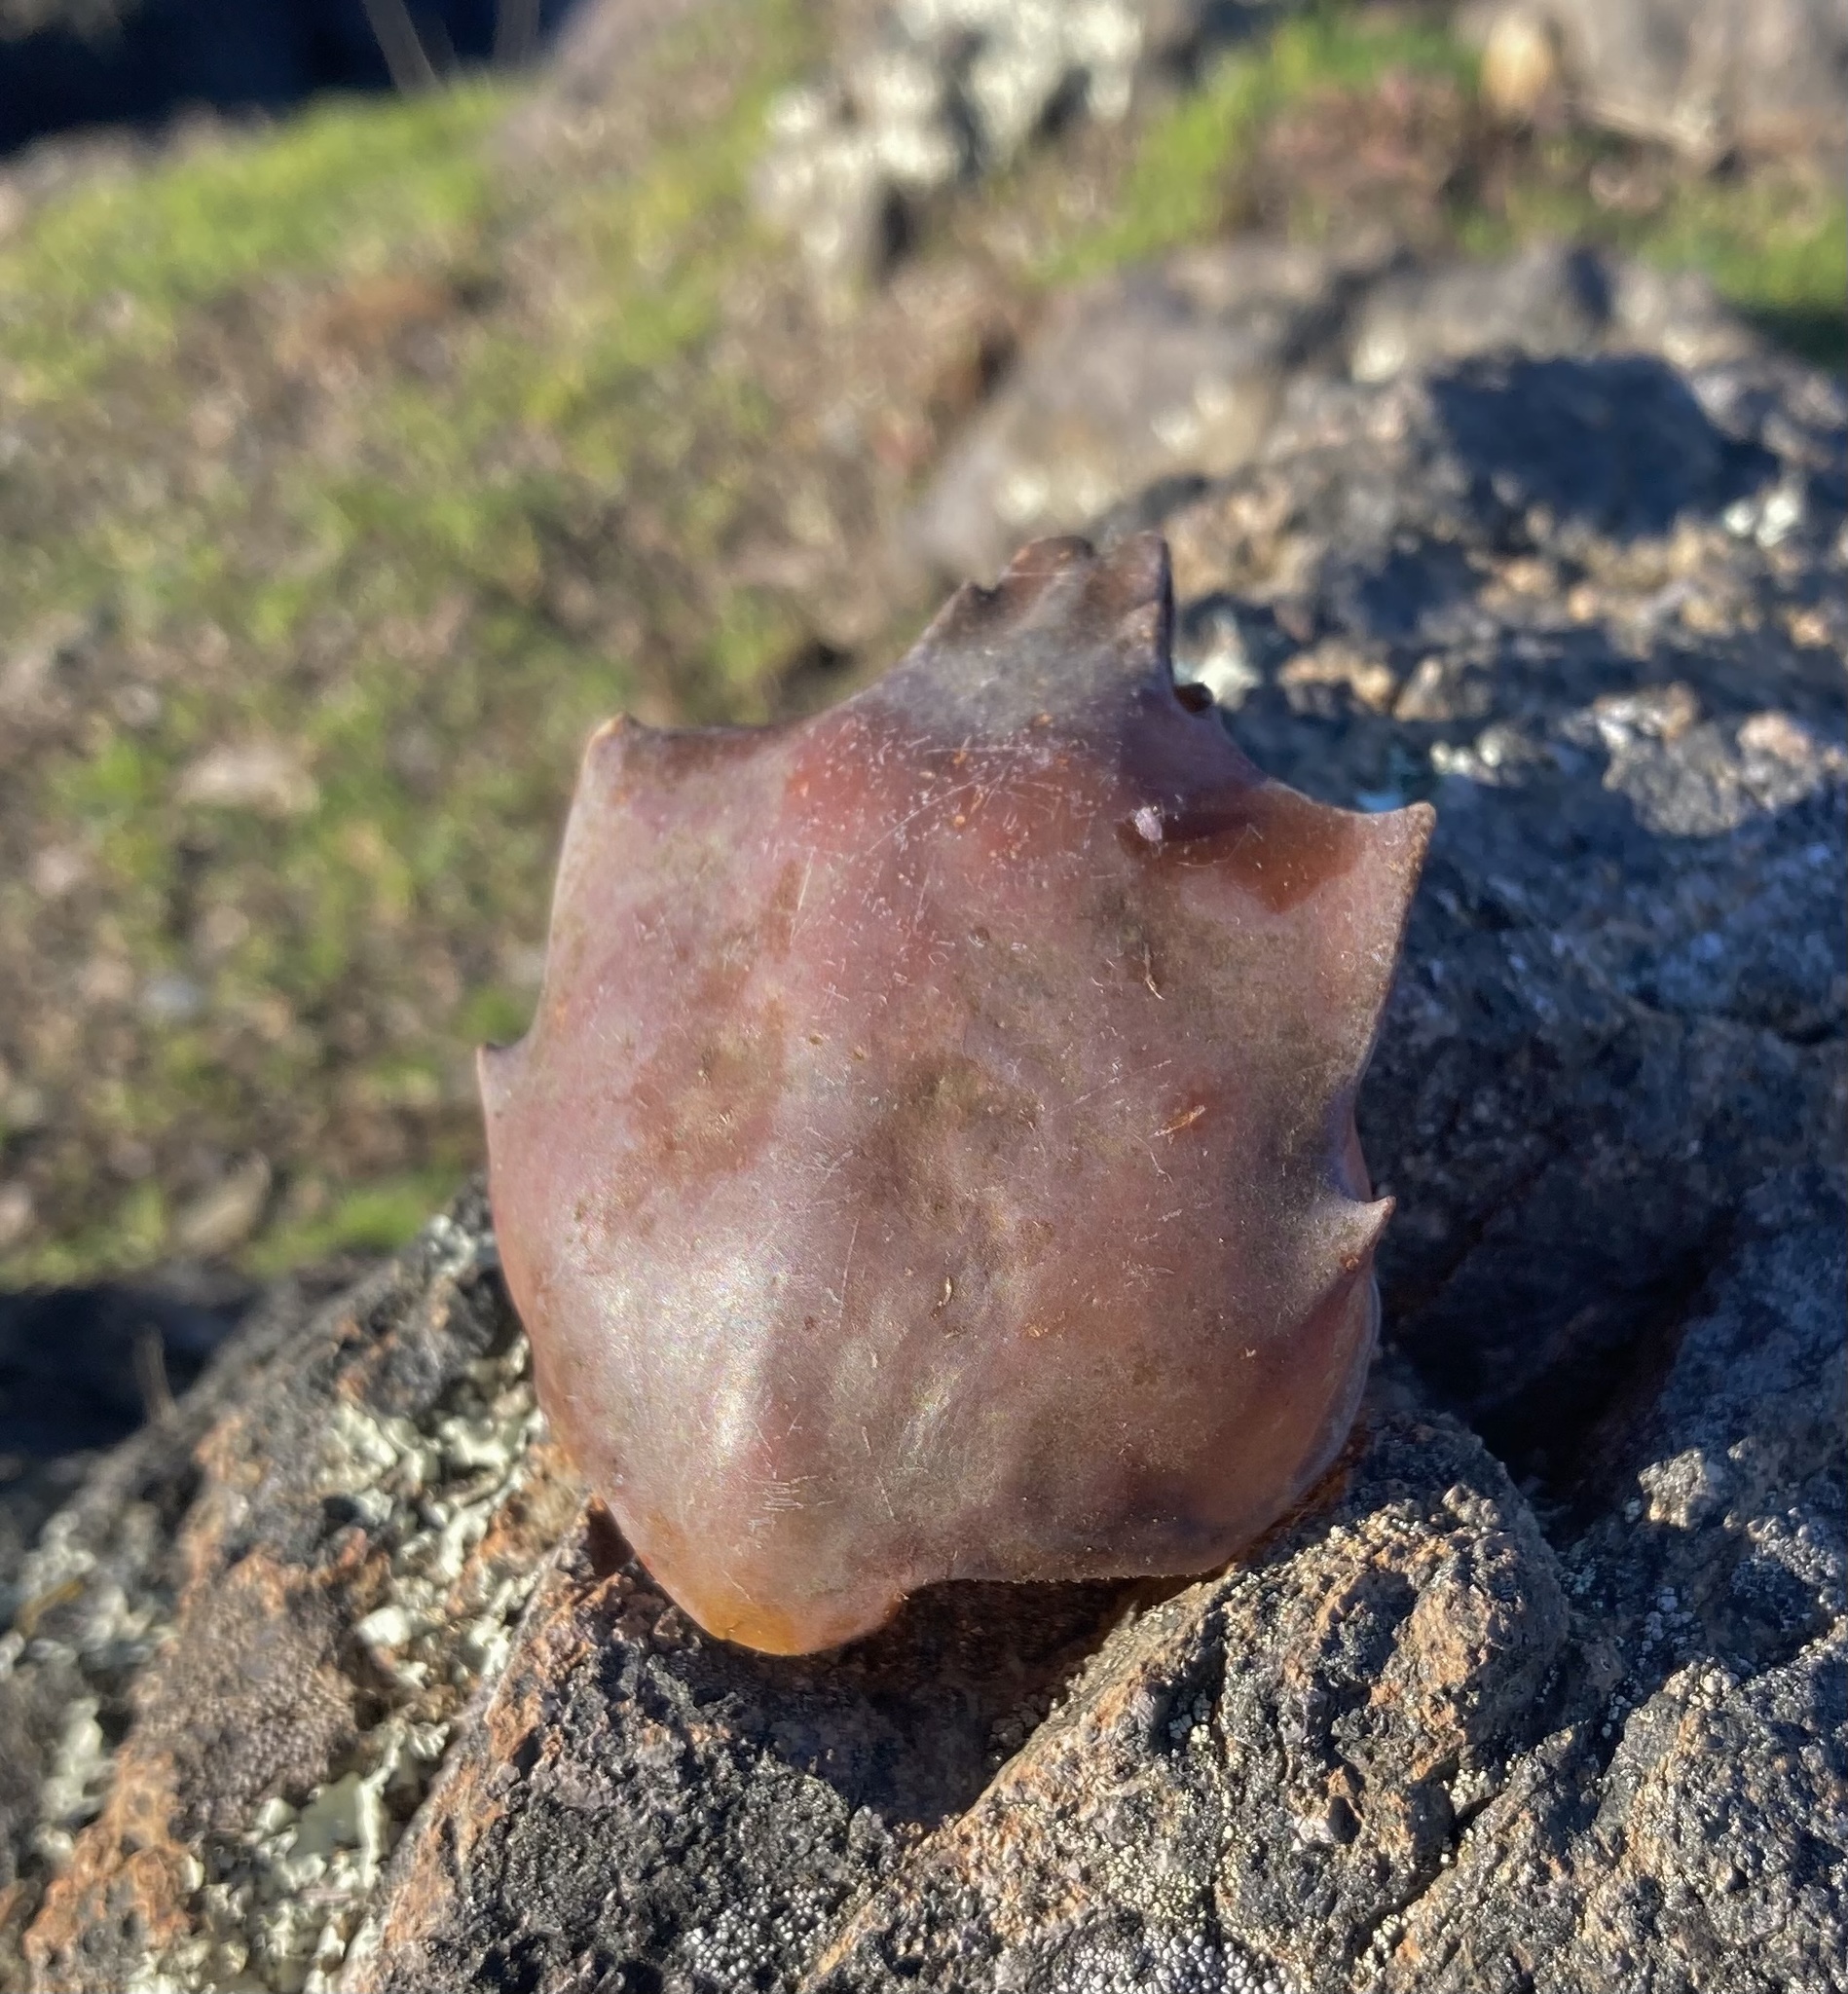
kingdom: Animalia
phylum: Arthropoda
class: Malacostraca
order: Decapoda
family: Epialtidae
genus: Pugettia
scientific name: Pugettia producta
